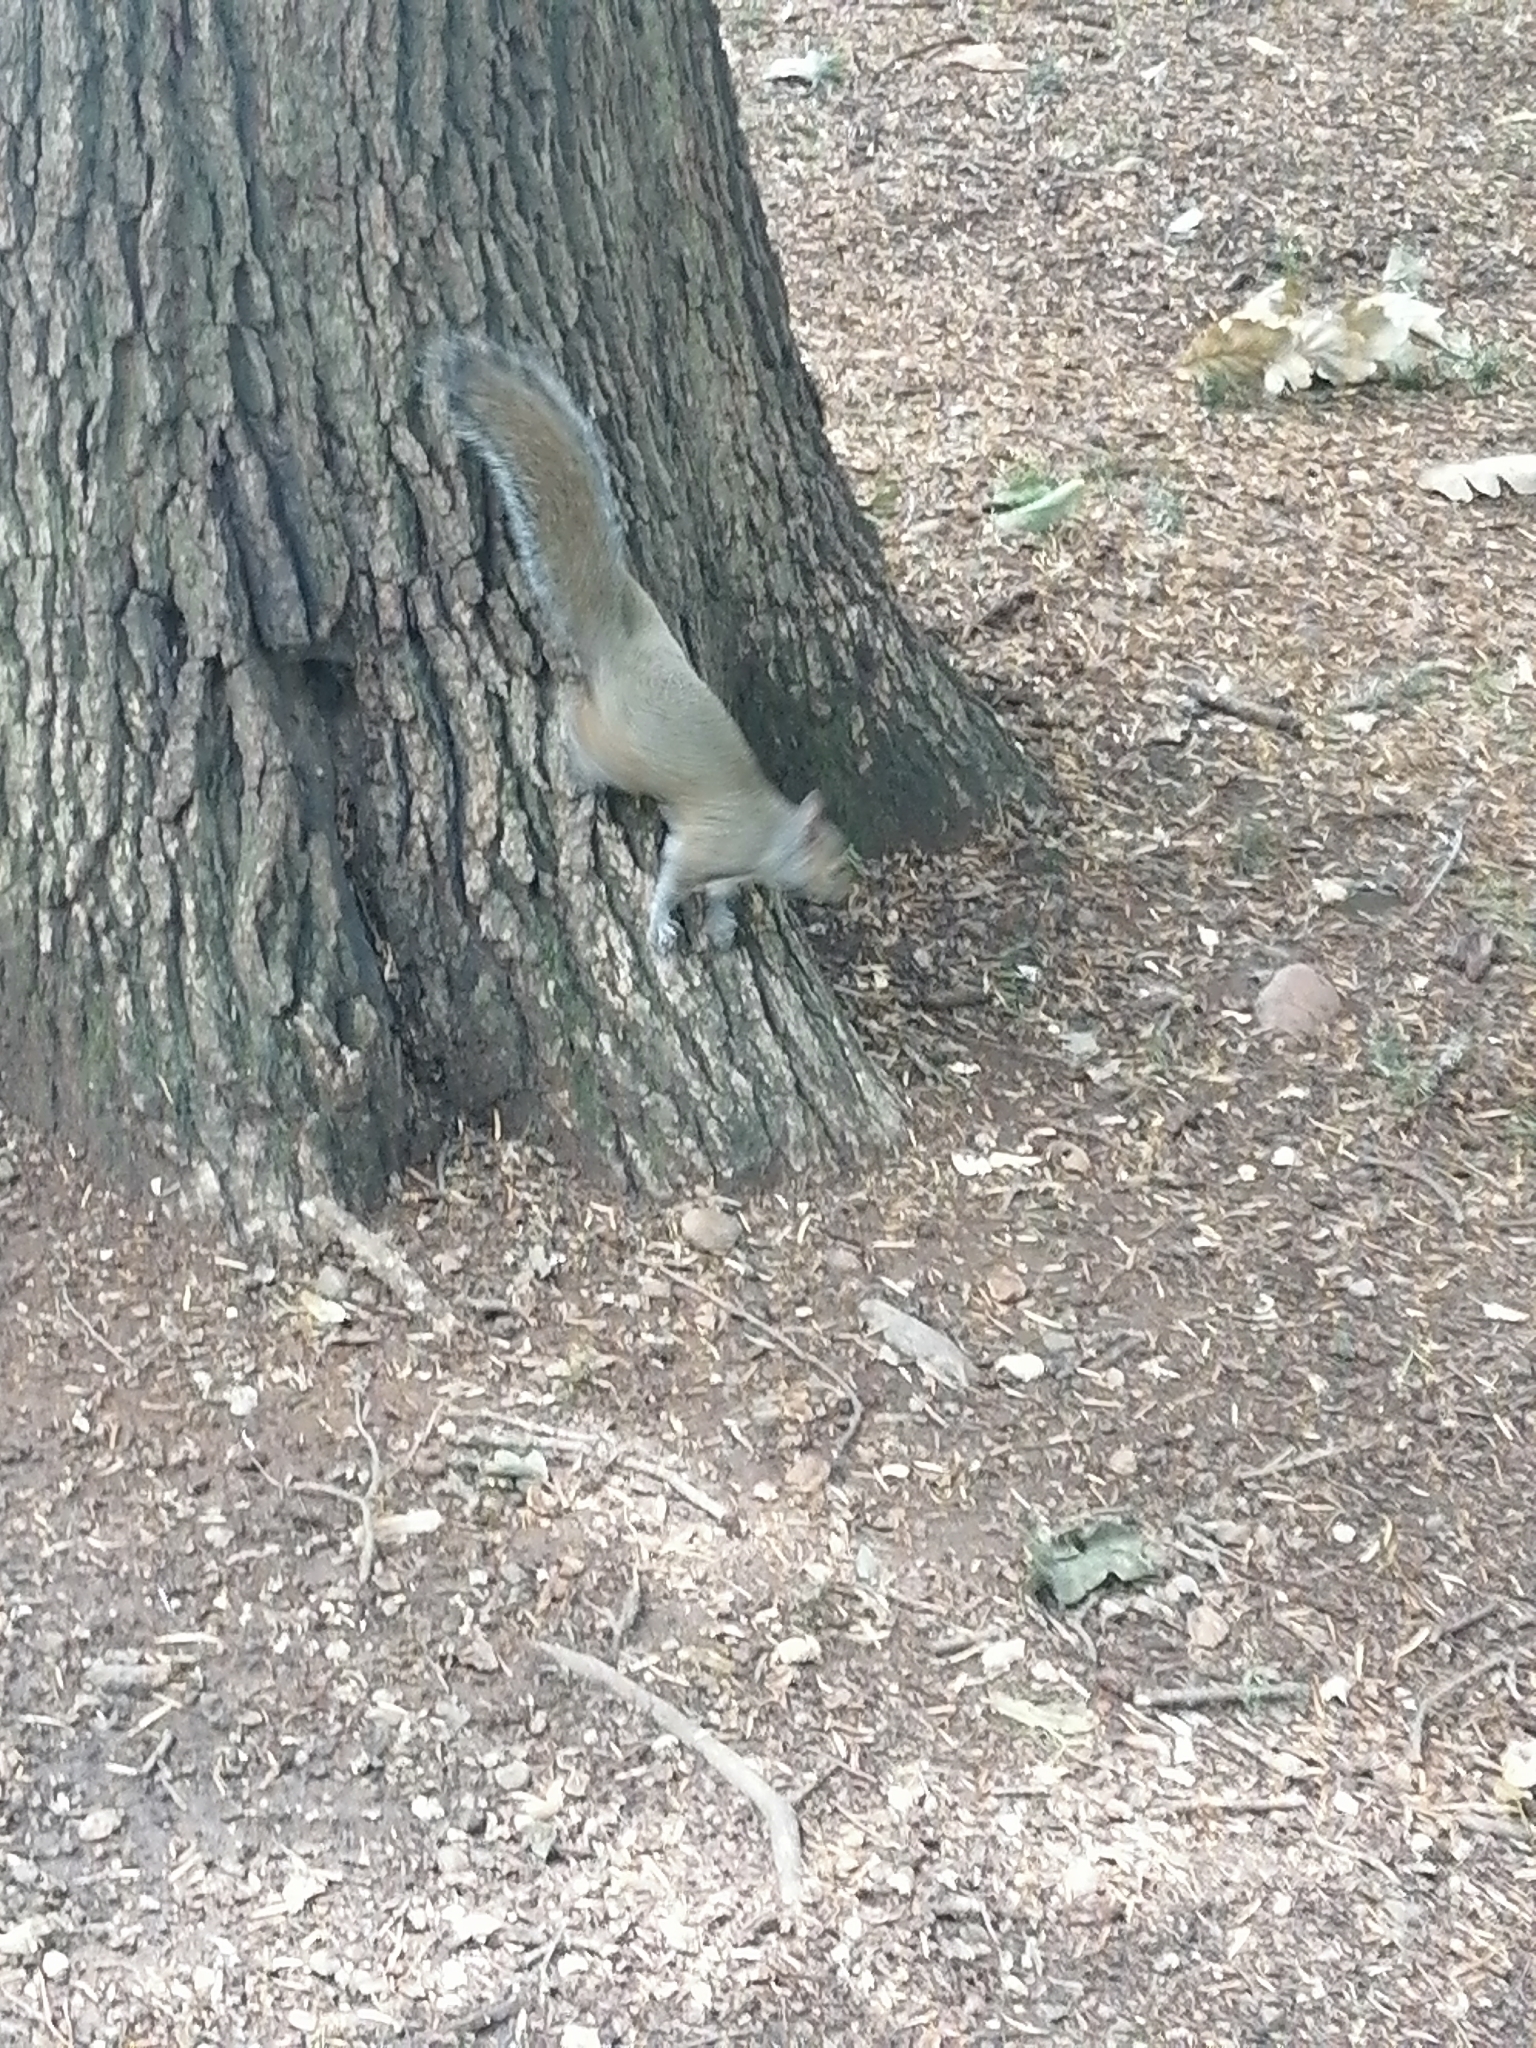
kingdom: Animalia
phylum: Chordata
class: Mammalia
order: Rodentia
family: Sciuridae
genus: Sciurus
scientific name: Sciurus carolinensis
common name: Eastern gray squirrel
